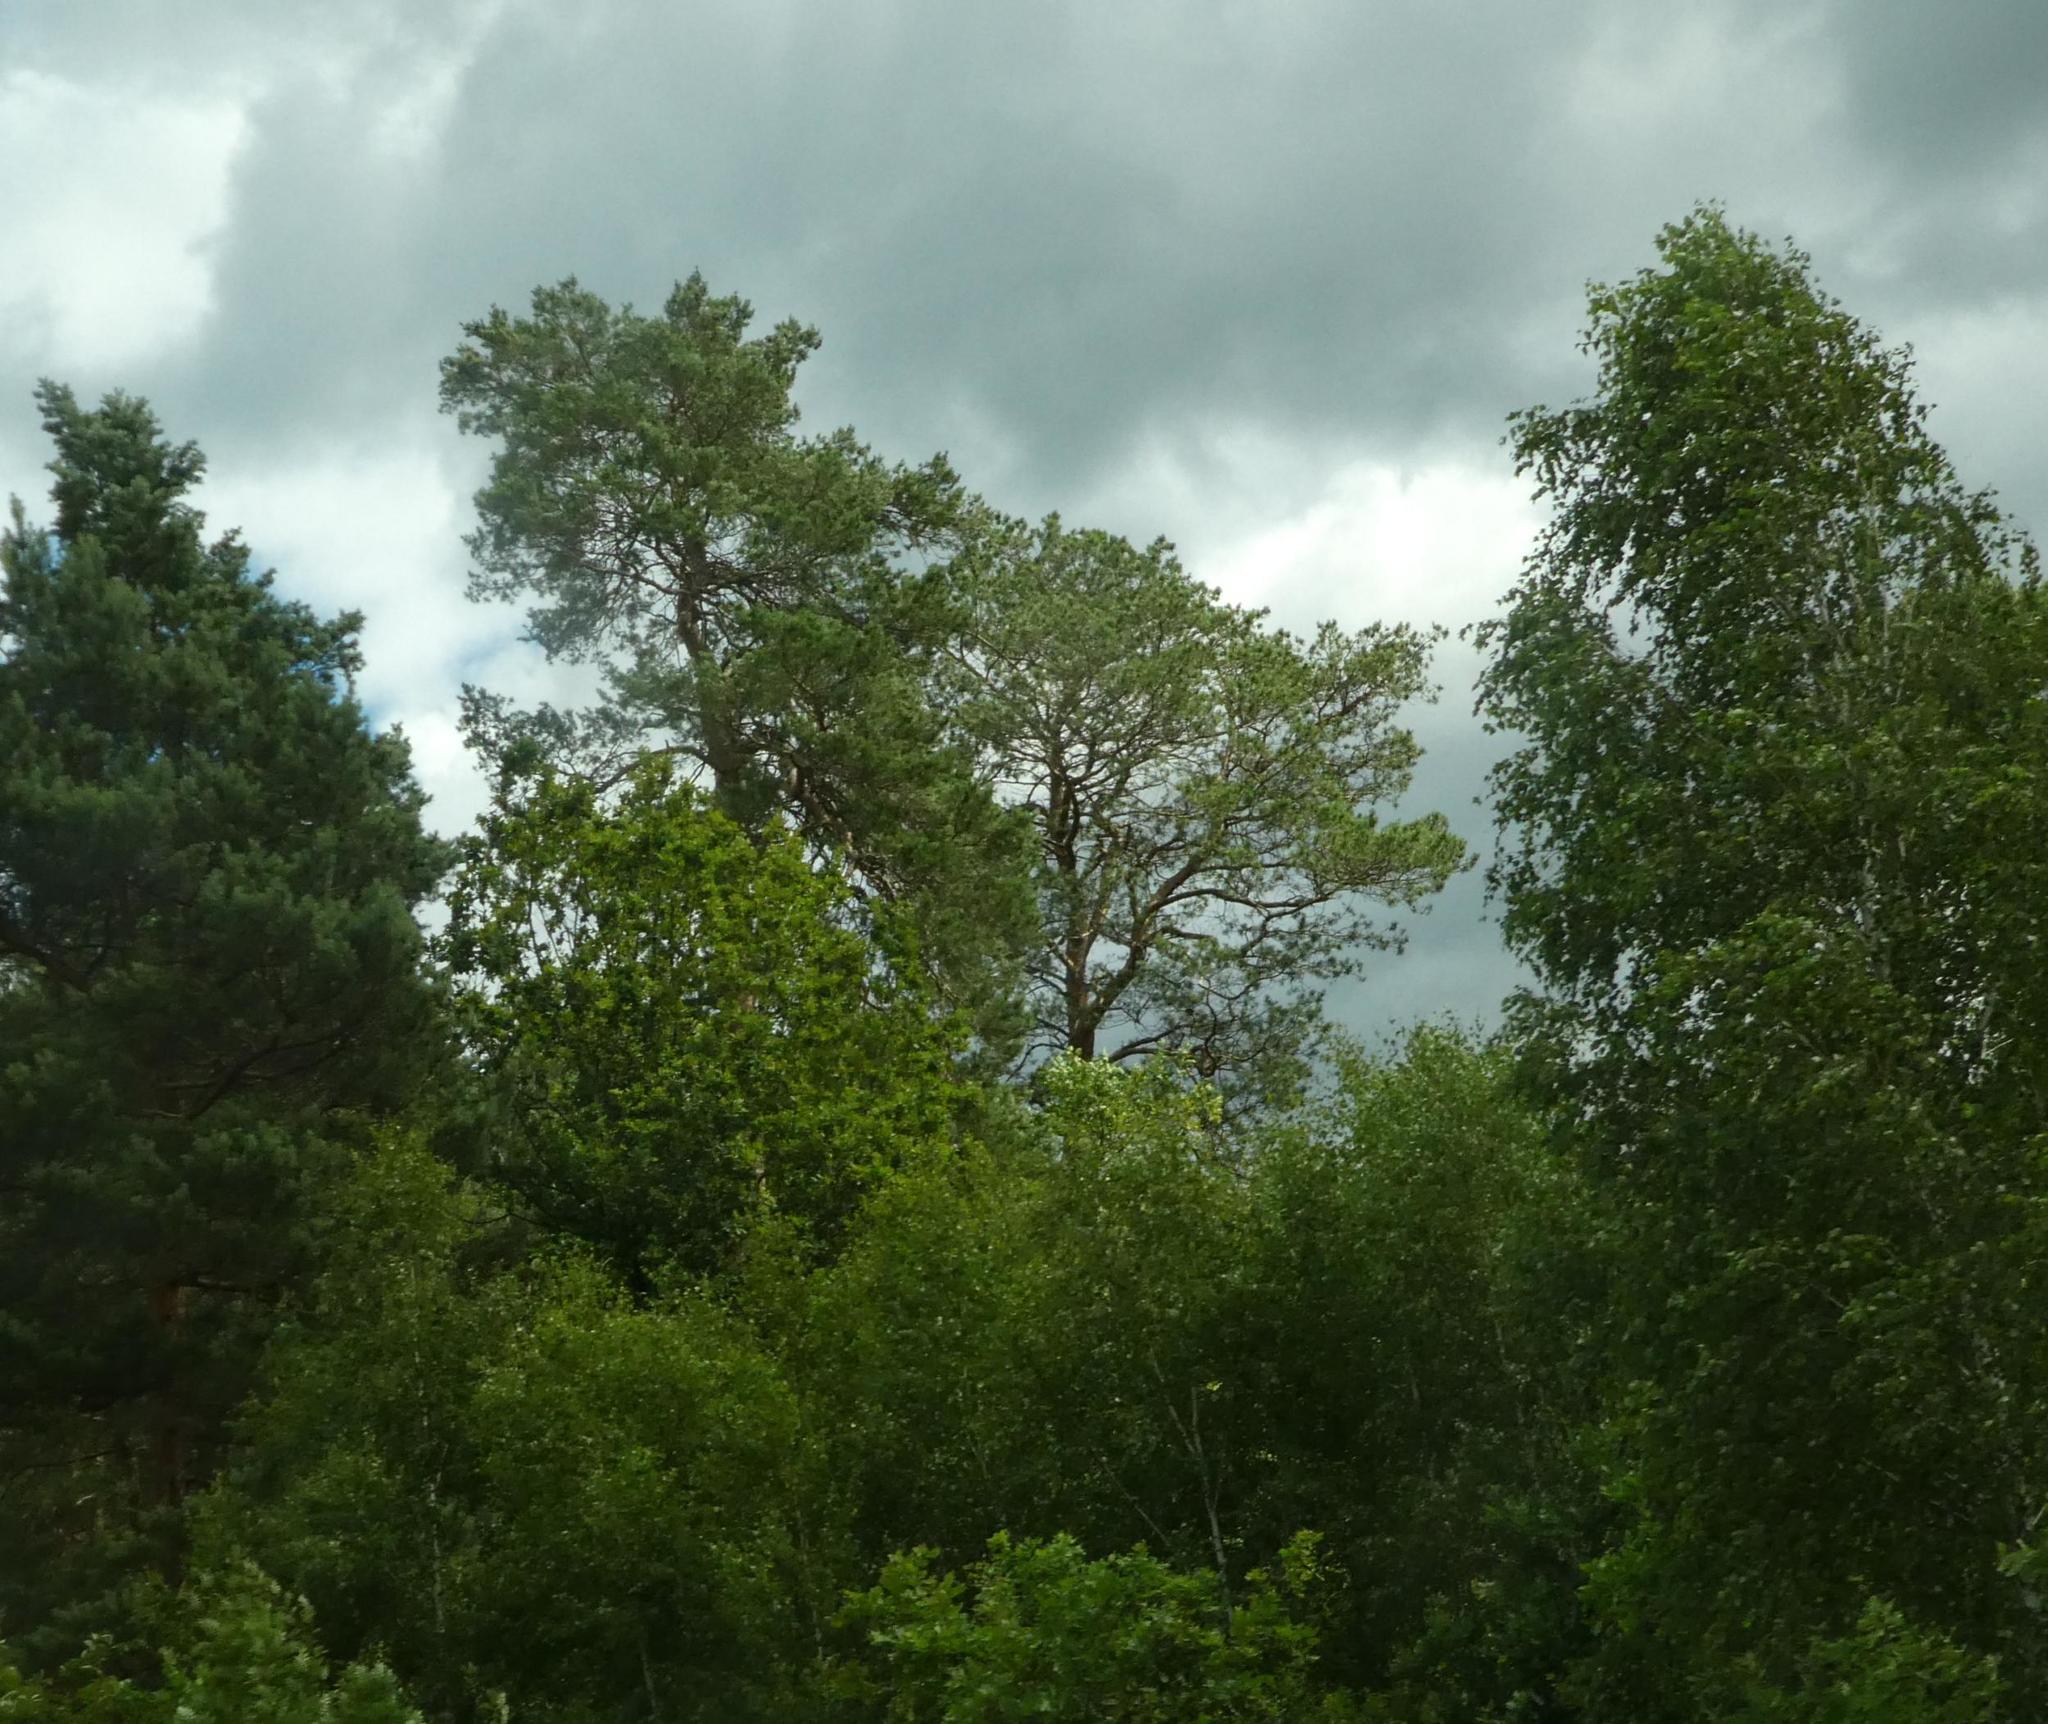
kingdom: Plantae
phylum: Tracheophyta
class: Pinopsida
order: Pinales
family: Pinaceae
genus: Pinus
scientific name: Pinus sylvestris
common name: Scots pine
